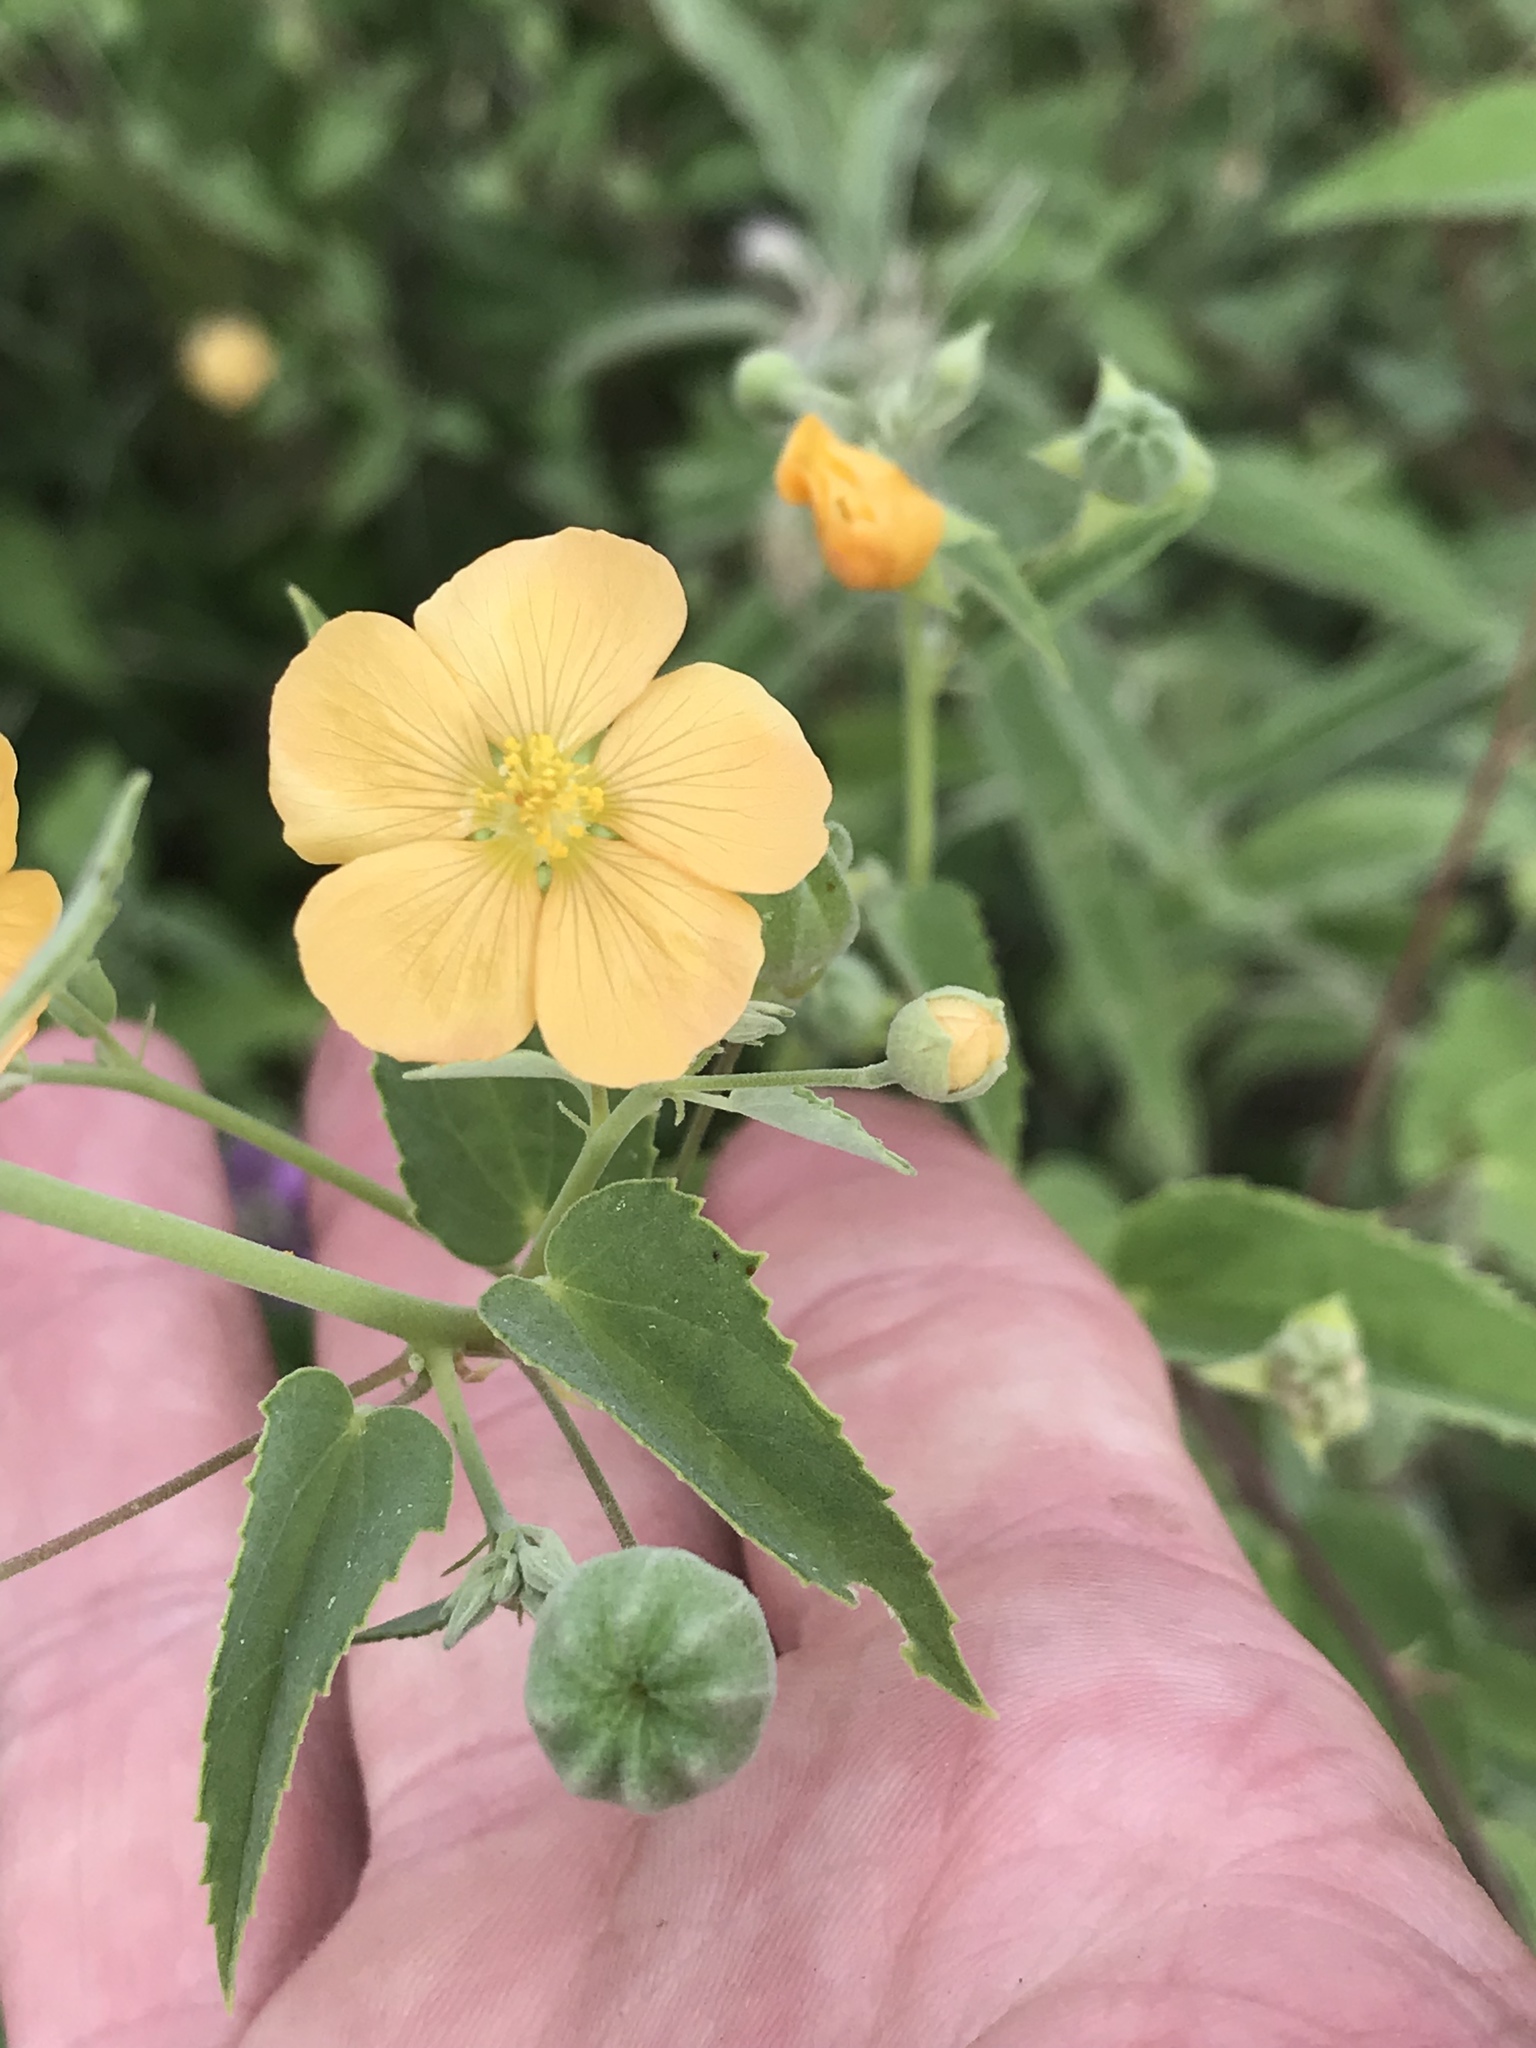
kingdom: Plantae
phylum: Tracheophyta
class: Magnoliopsida
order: Malvales
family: Malvaceae
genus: Abutilon
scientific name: Abutilon fruticosum
